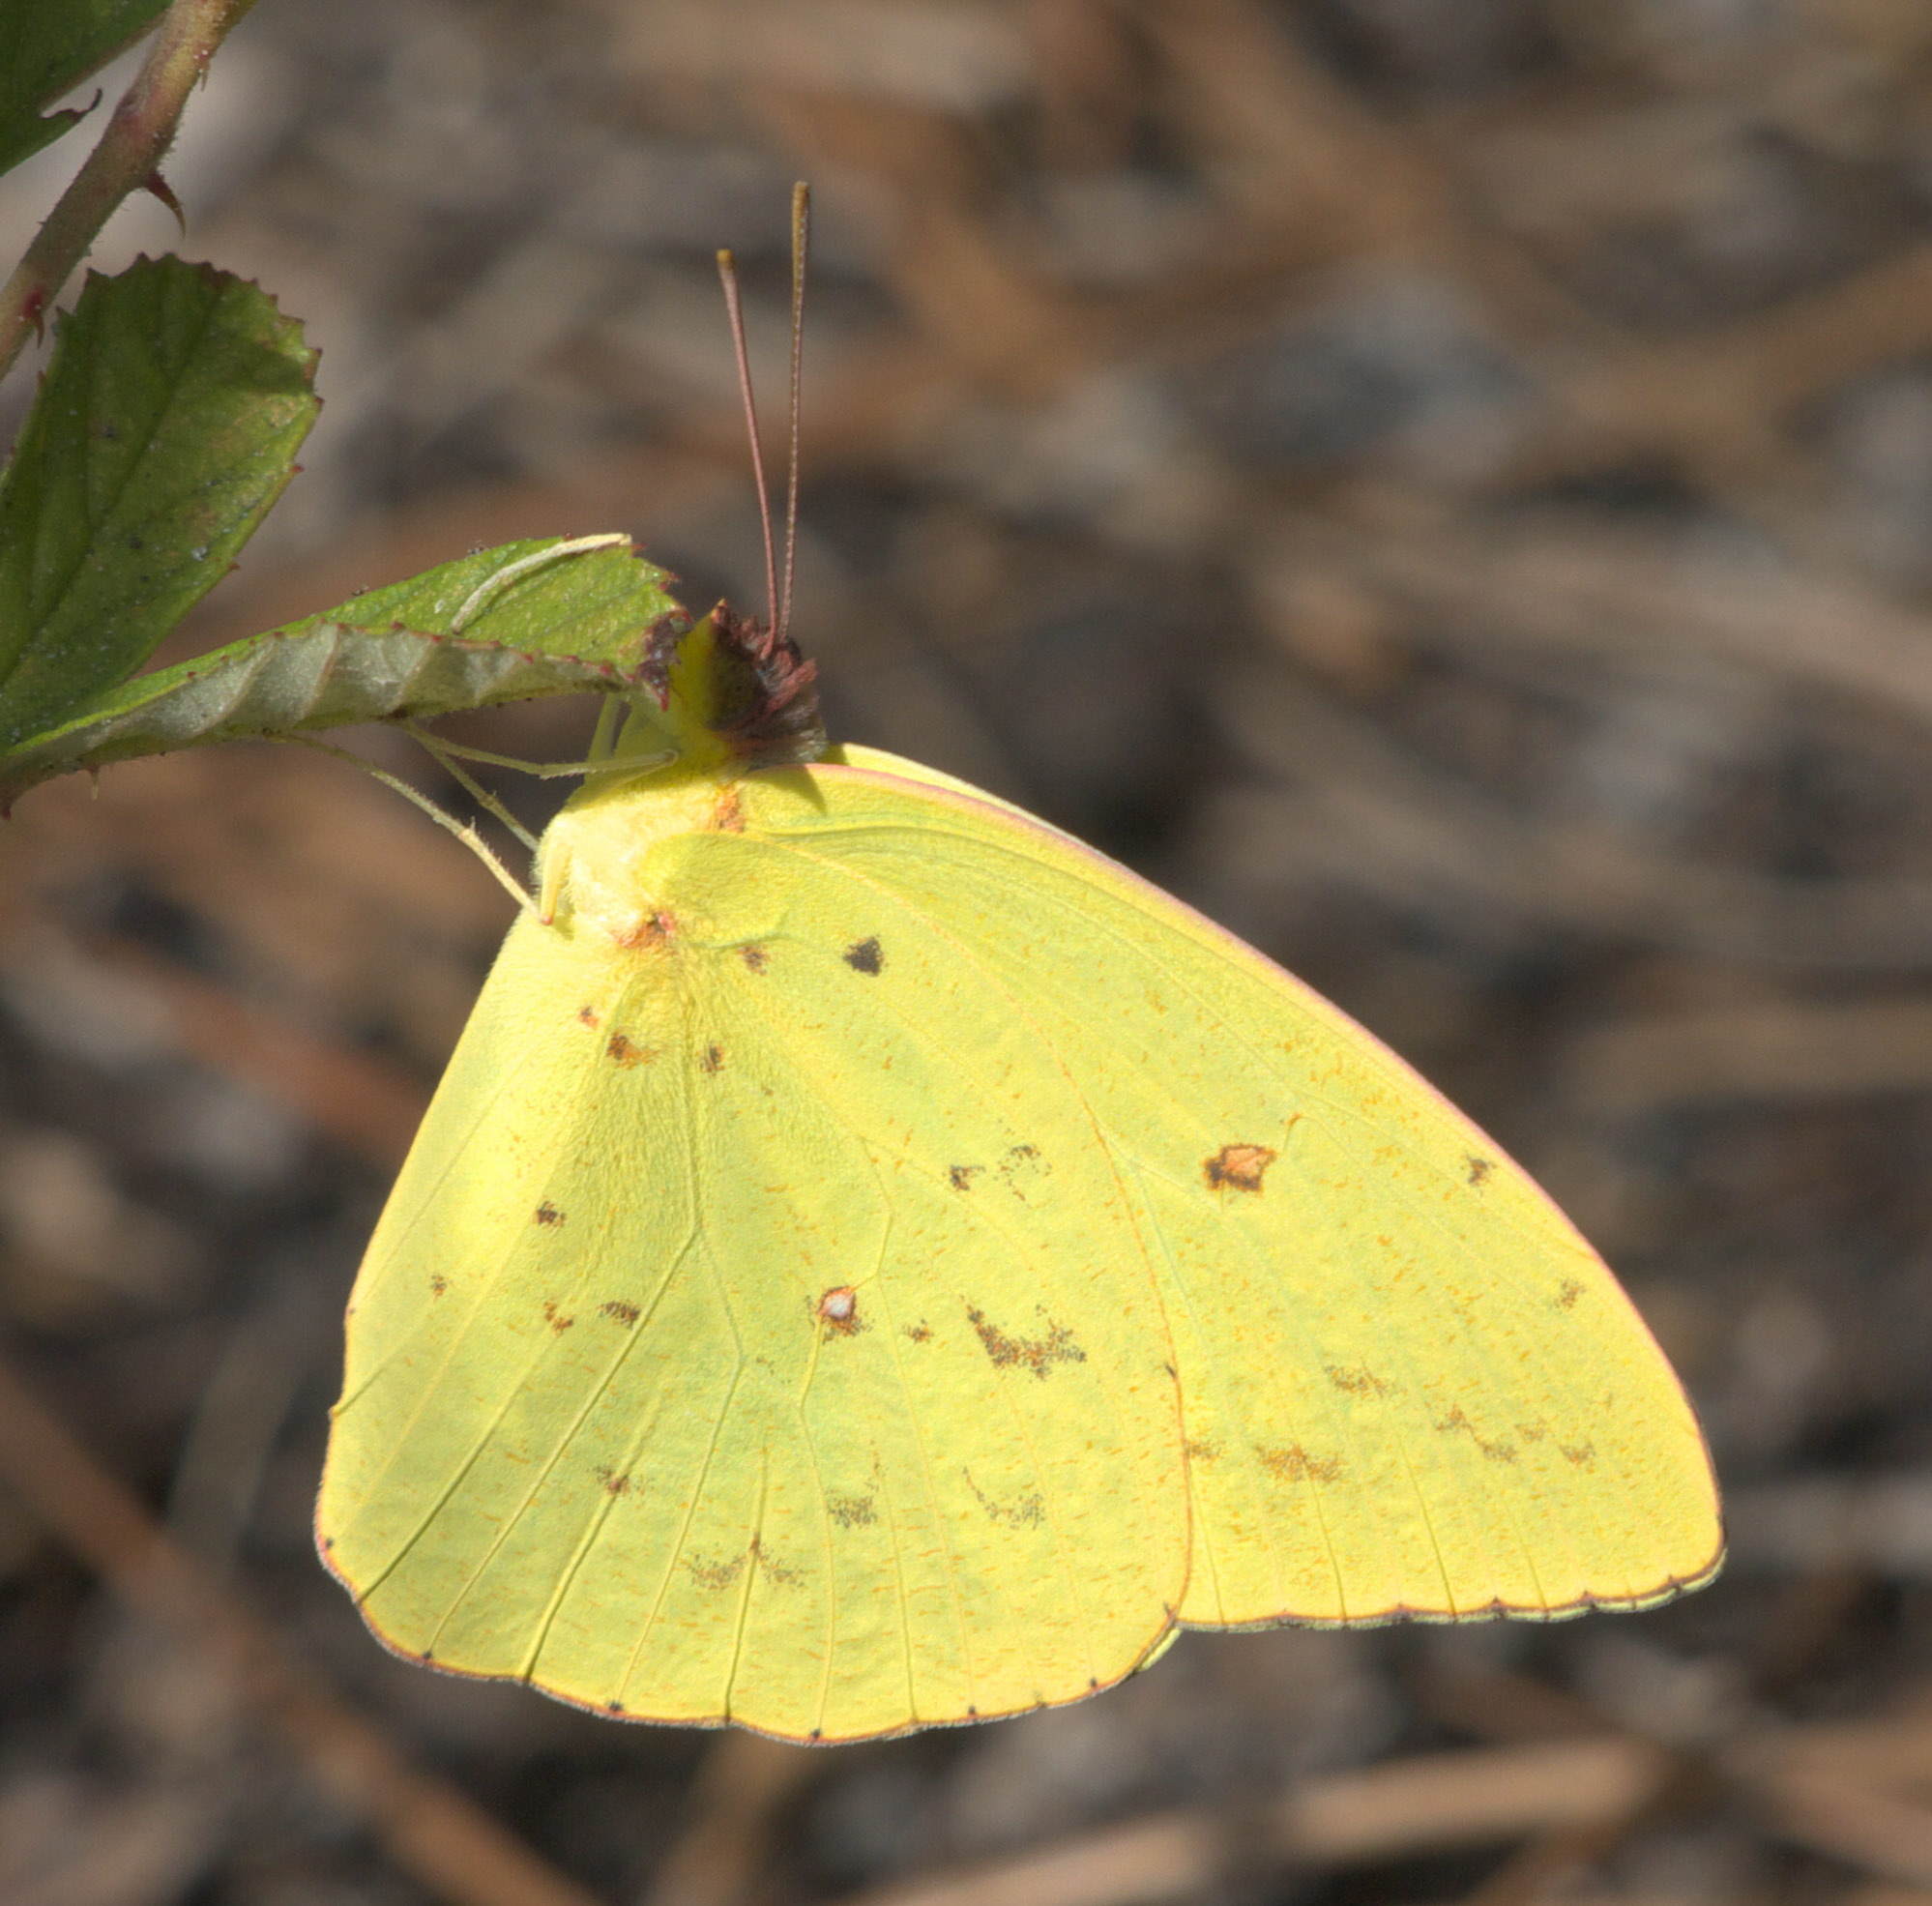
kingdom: Animalia
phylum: Arthropoda
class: Insecta
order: Lepidoptera
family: Pieridae
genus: Phoebis
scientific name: Phoebis sennae
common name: Cloudless sulphur
